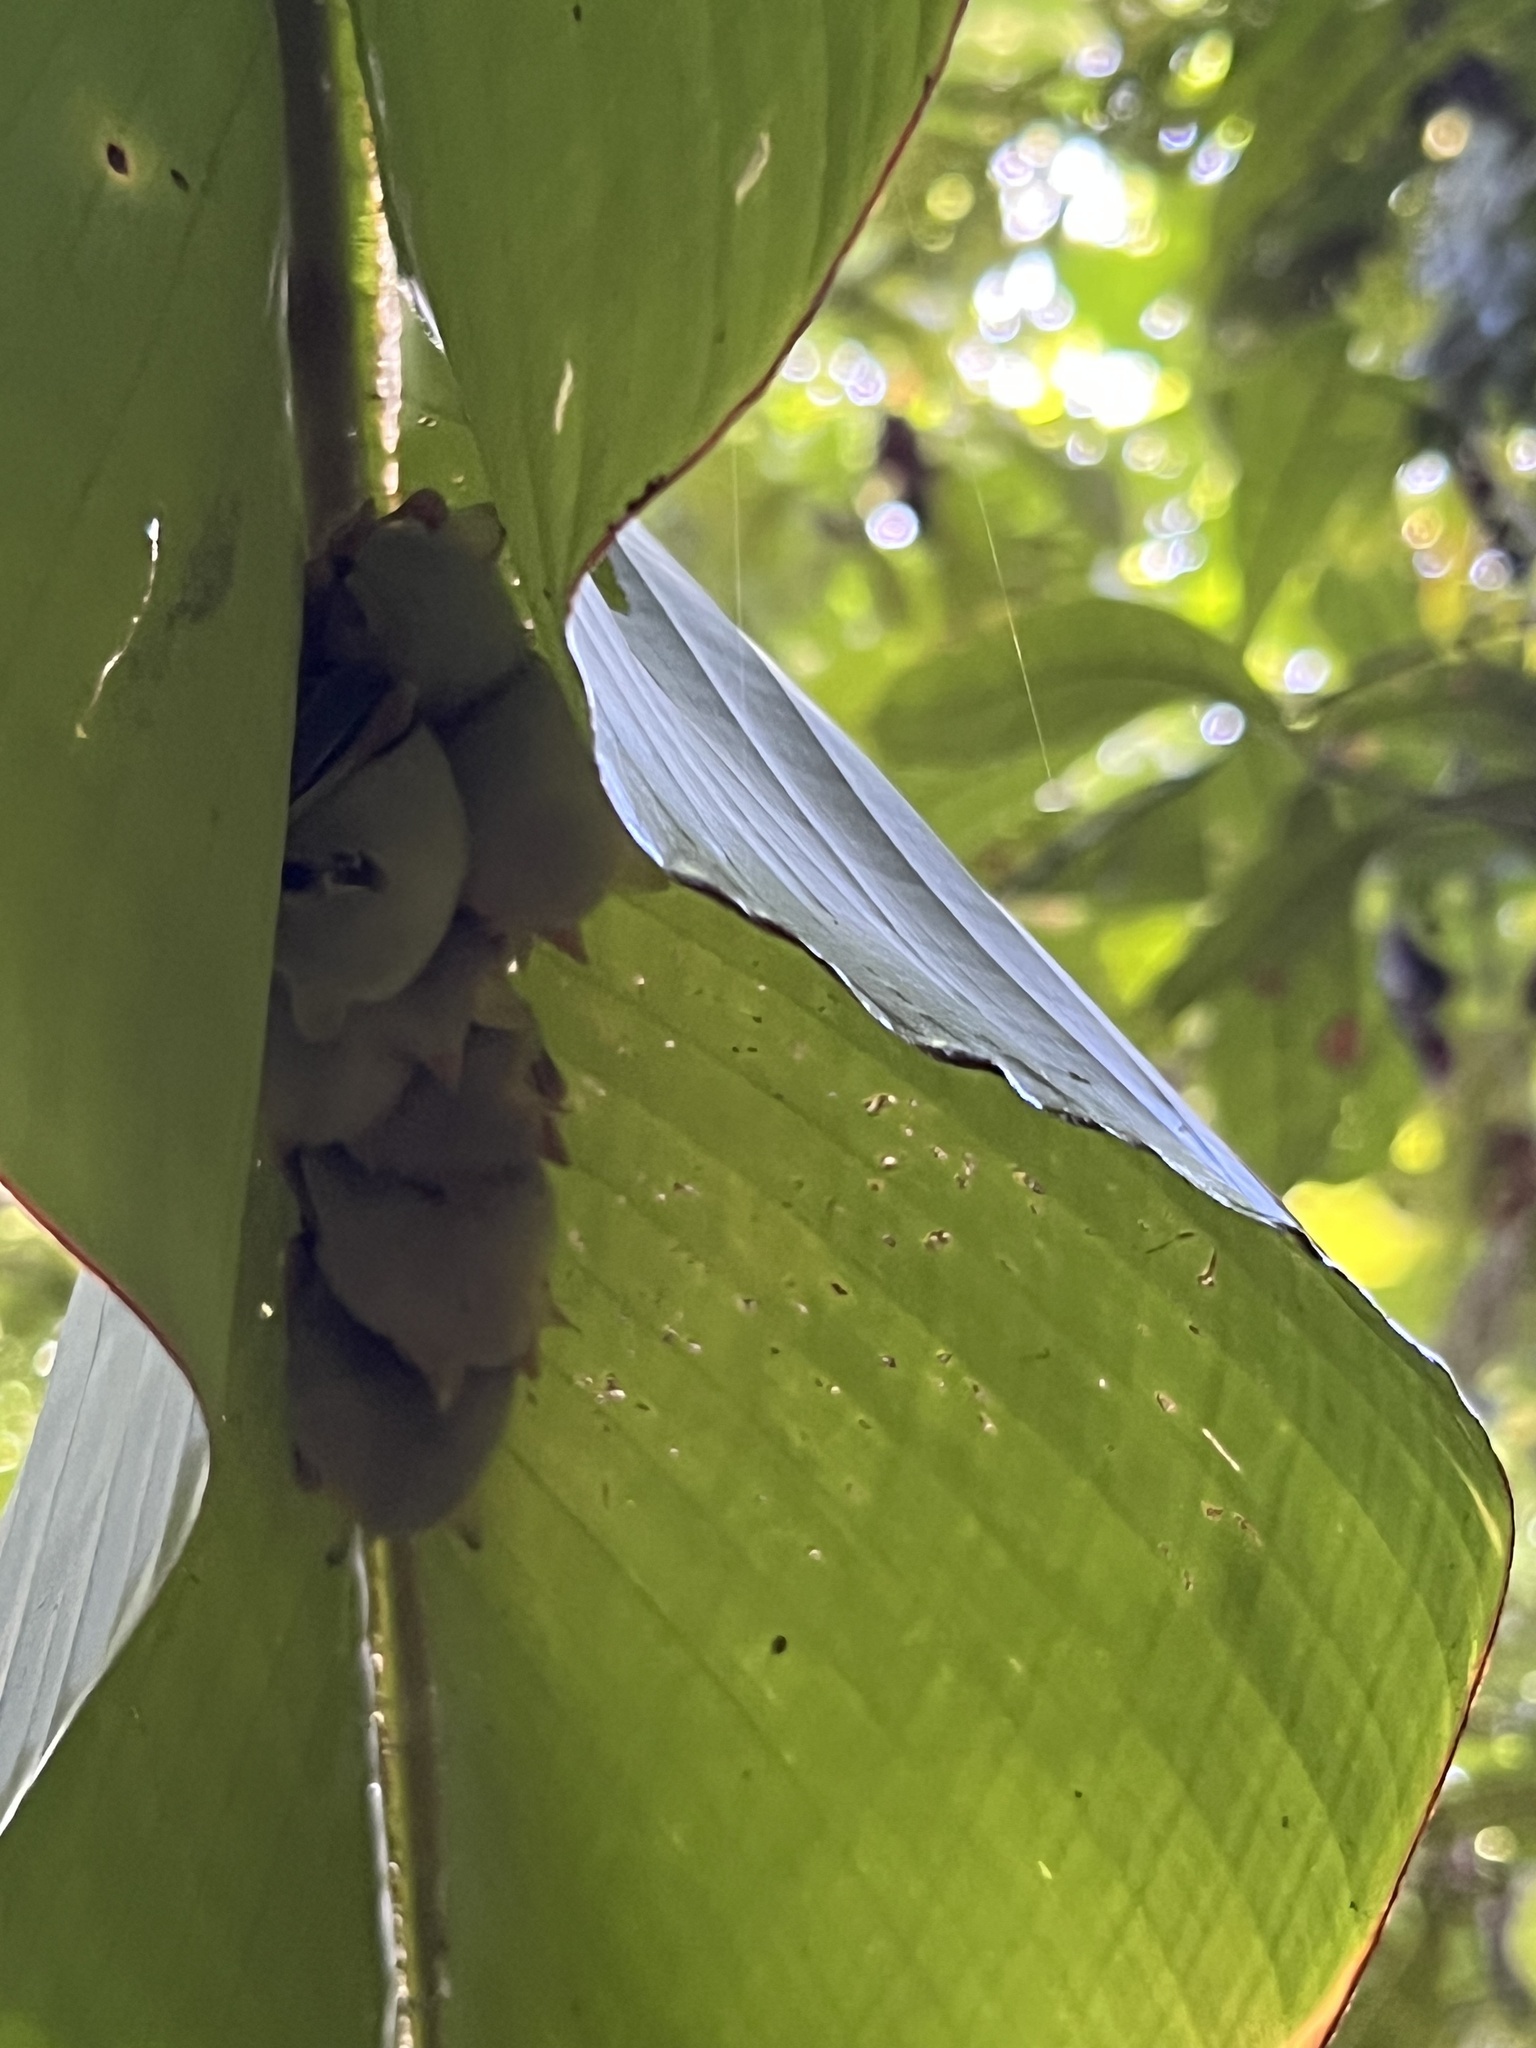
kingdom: Animalia
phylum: Chordata
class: Mammalia
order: Chiroptera
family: Phyllostomidae
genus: Ectophylla
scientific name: Ectophylla alba
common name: Honduran white bat
